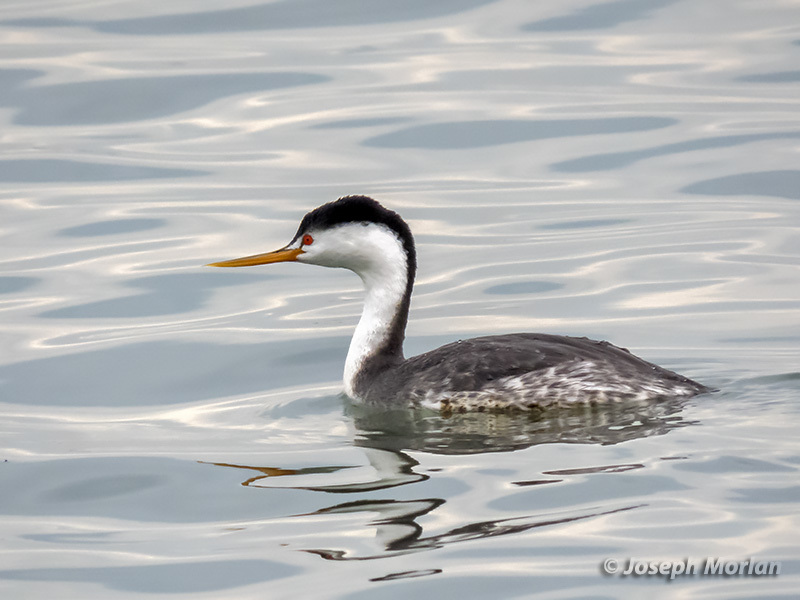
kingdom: Animalia
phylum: Chordata
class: Aves
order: Podicipediformes
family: Podicipedidae
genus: Aechmophorus
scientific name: Aechmophorus clarkii
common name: Clark's grebe
